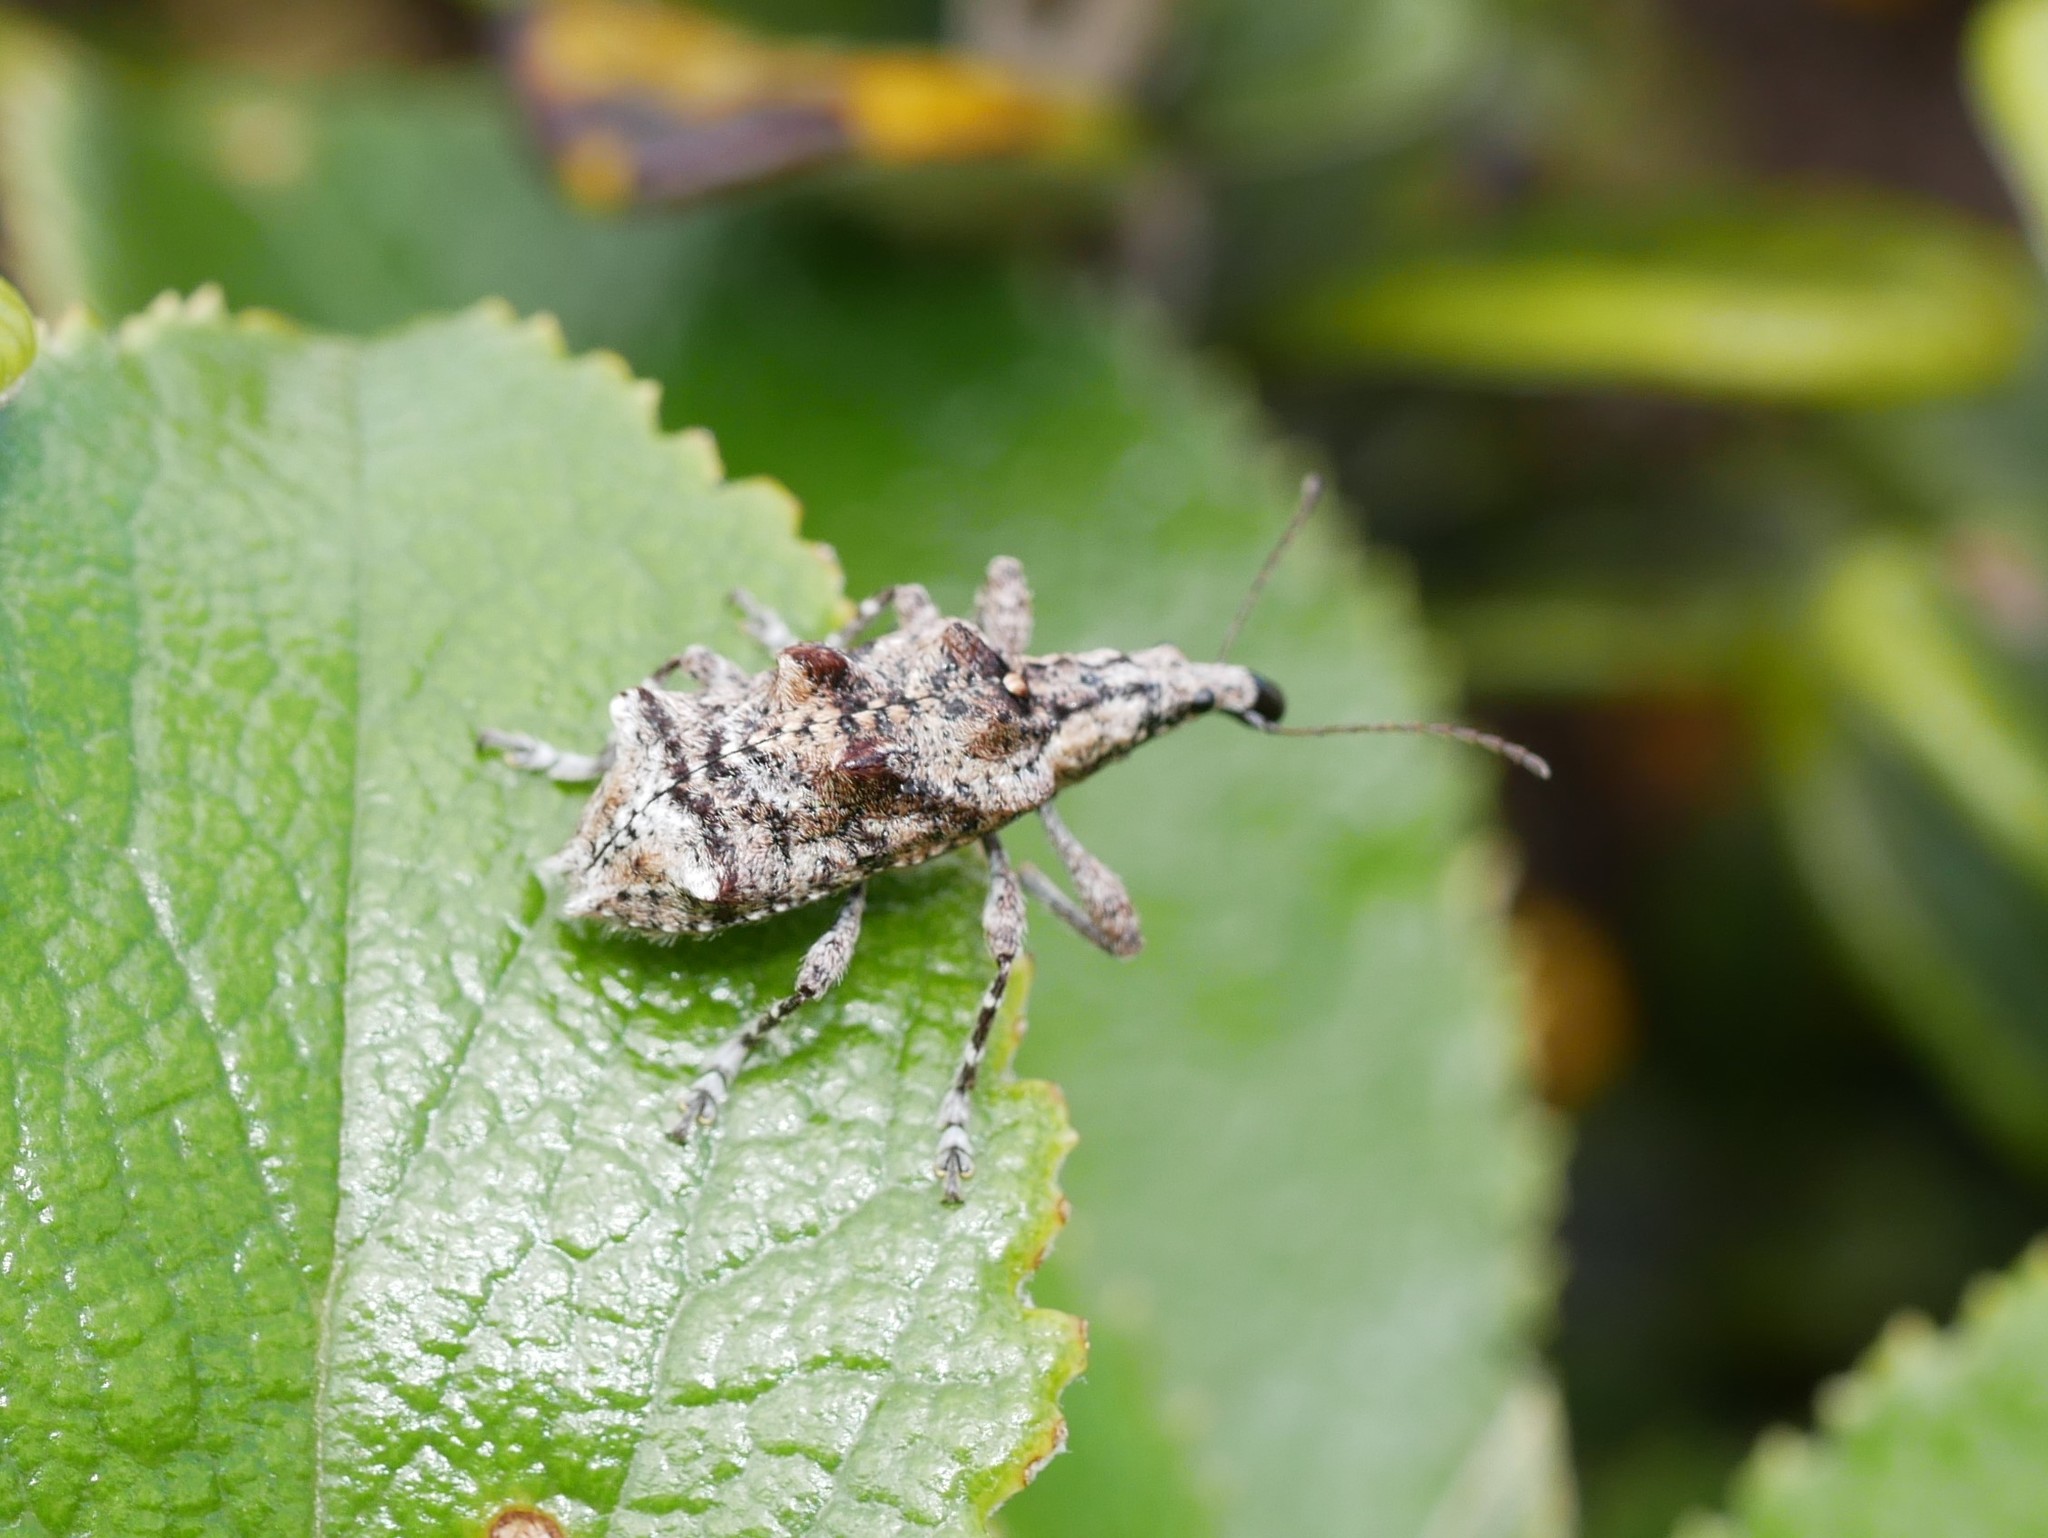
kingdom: Animalia
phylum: Arthropoda
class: Insecta
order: Coleoptera
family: Belidae
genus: Agathinus
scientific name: Agathinus tridens
